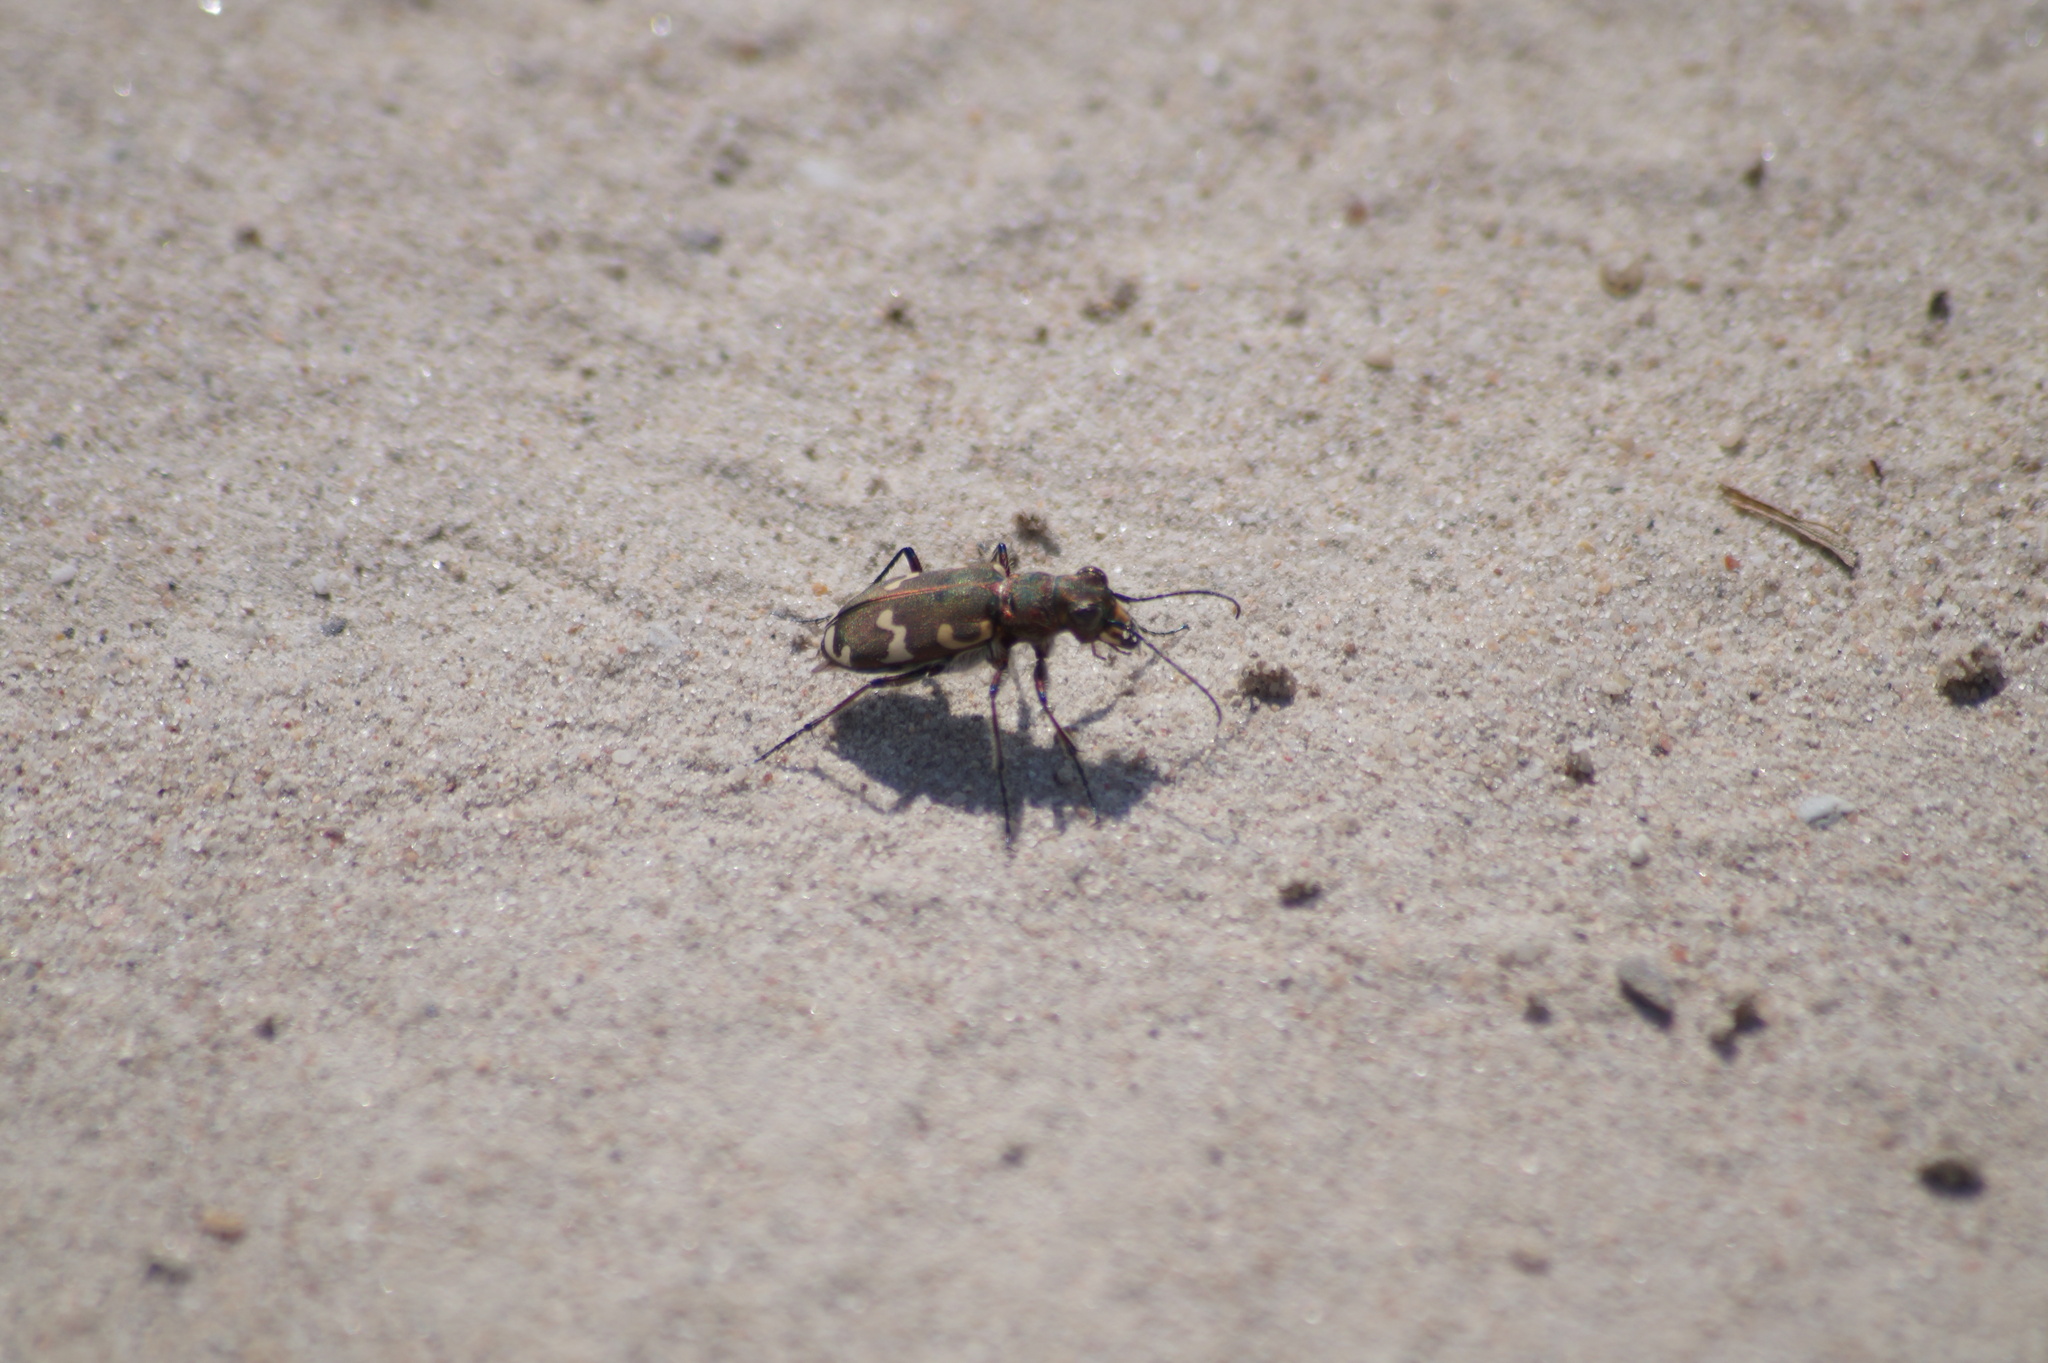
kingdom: Animalia
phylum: Arthropoda
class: Insecta
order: Coleoptera
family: Carabidae
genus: Cicindela
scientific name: Cicindela hybrida
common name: Northern dune tiger beetle
